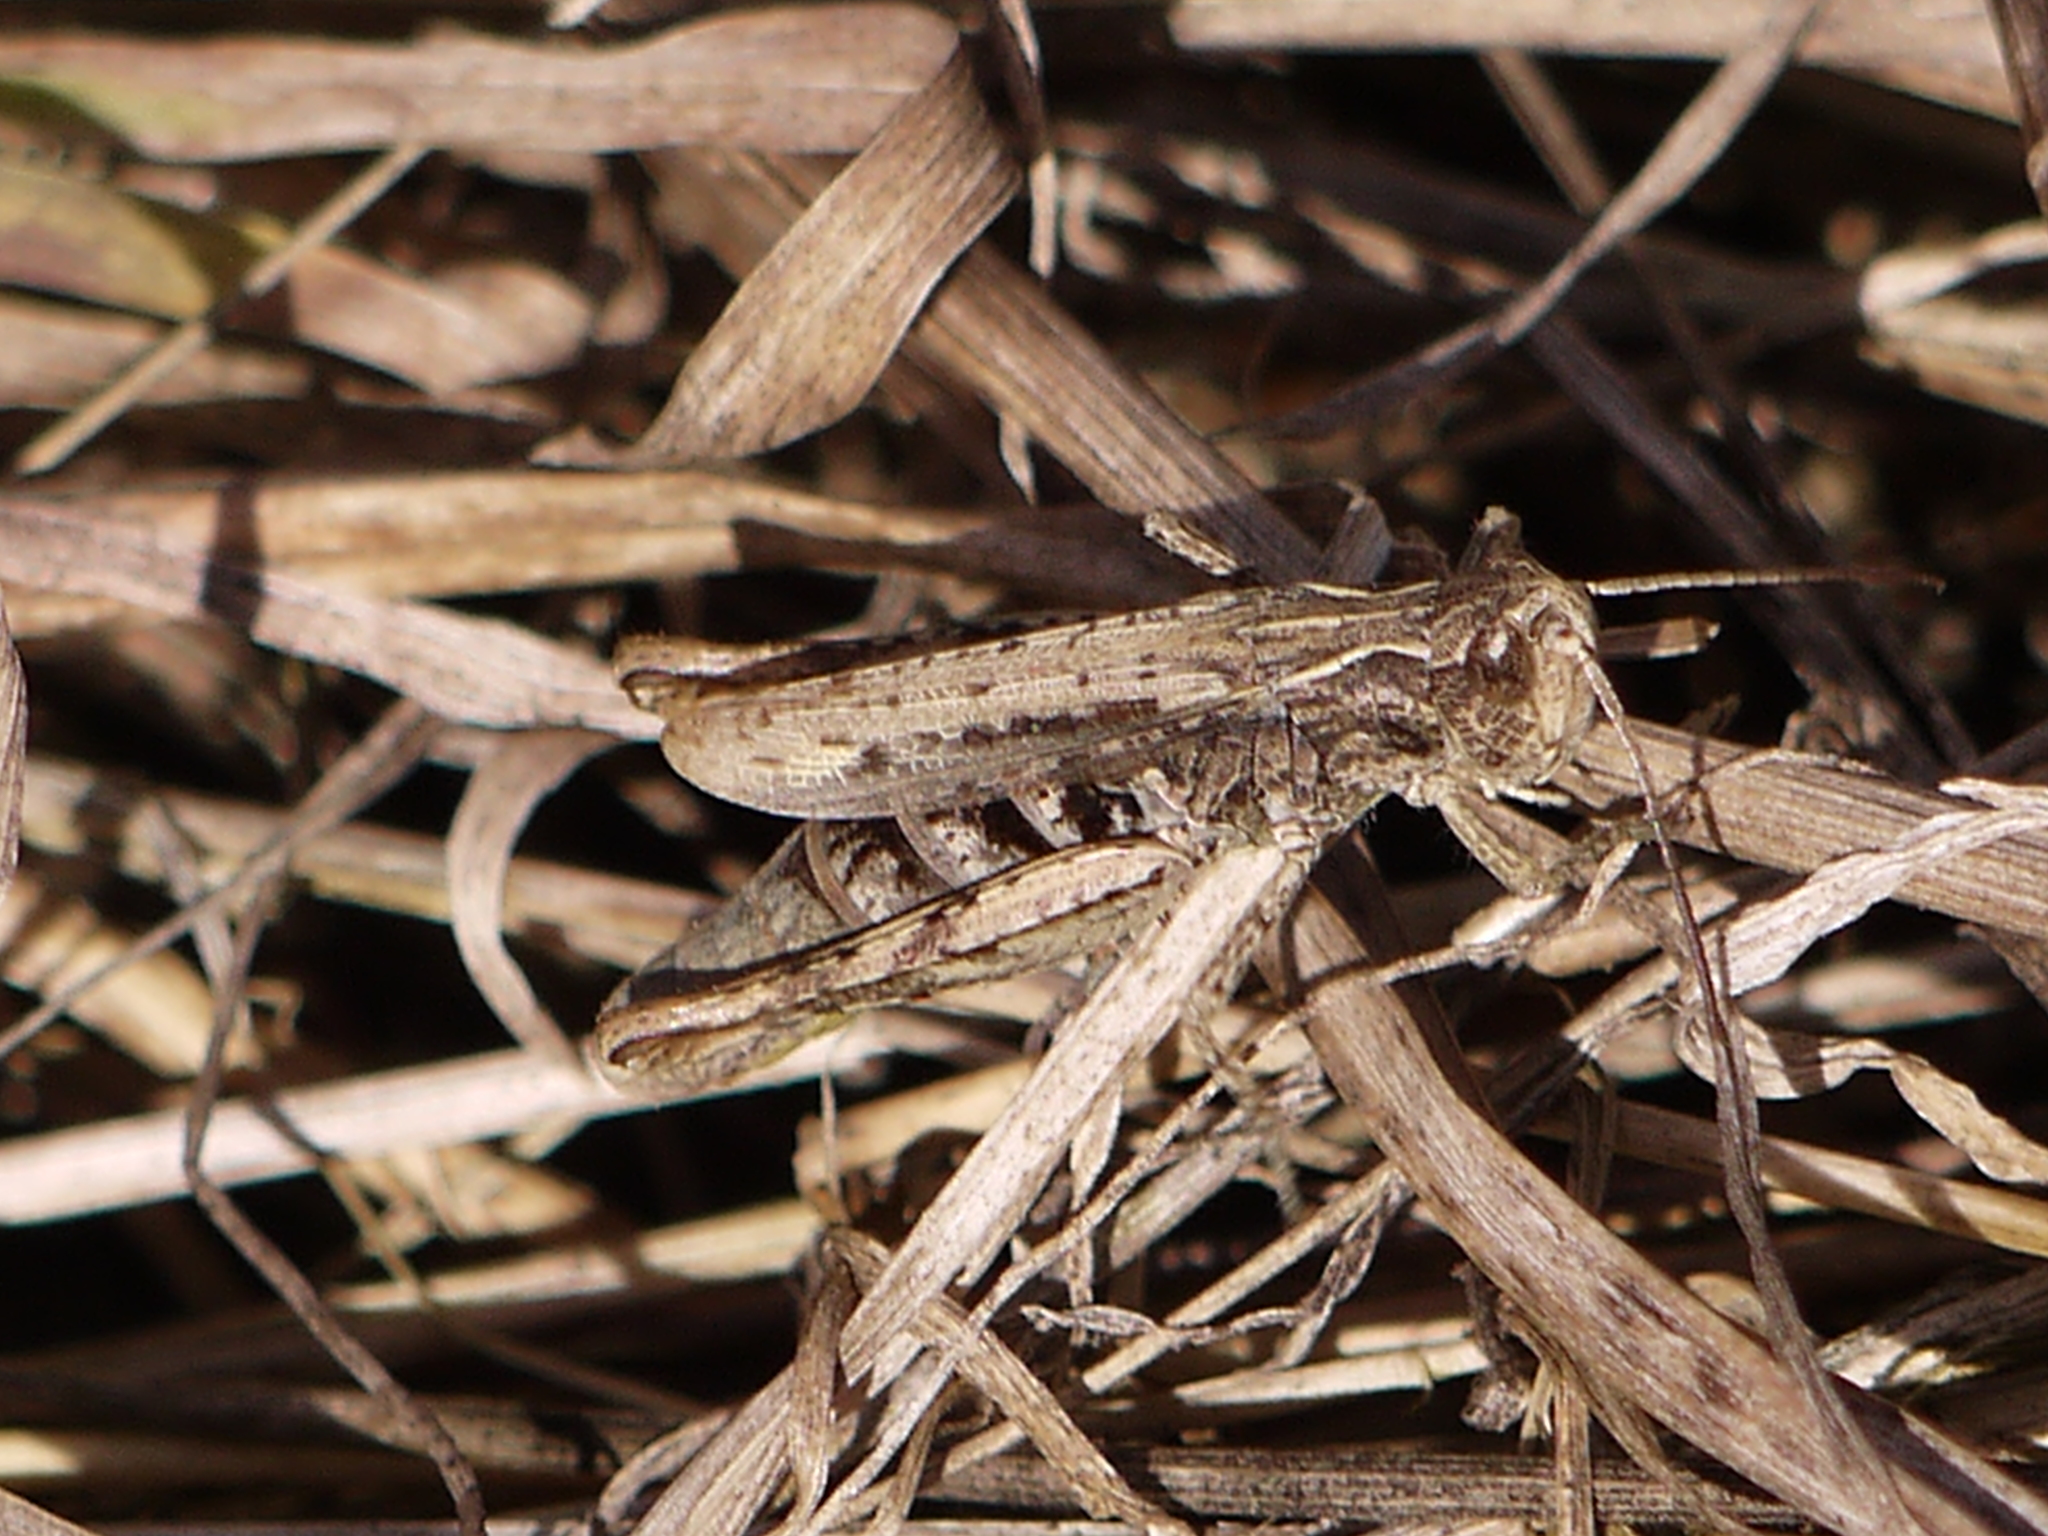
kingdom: Animalia
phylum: Arthropoda
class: Insecta
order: Orthoptera
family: Acrididae
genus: Chorthippus
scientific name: Chorthippus apricarius
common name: Upland field grasshopper
